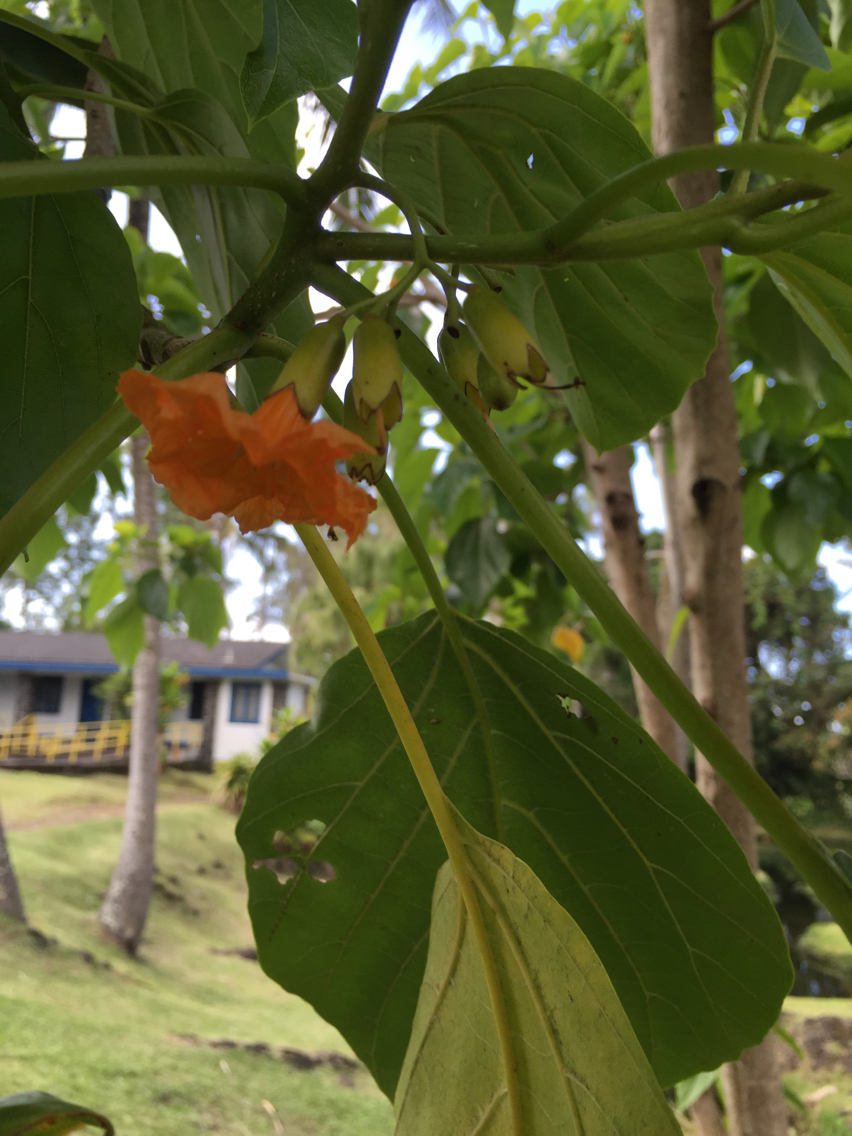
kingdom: Plantae
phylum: Tracheophyta
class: Magnoliopsida
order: Boraginales
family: Cordiaceae
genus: Cordia
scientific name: Cordia subcordata
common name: Mareer
